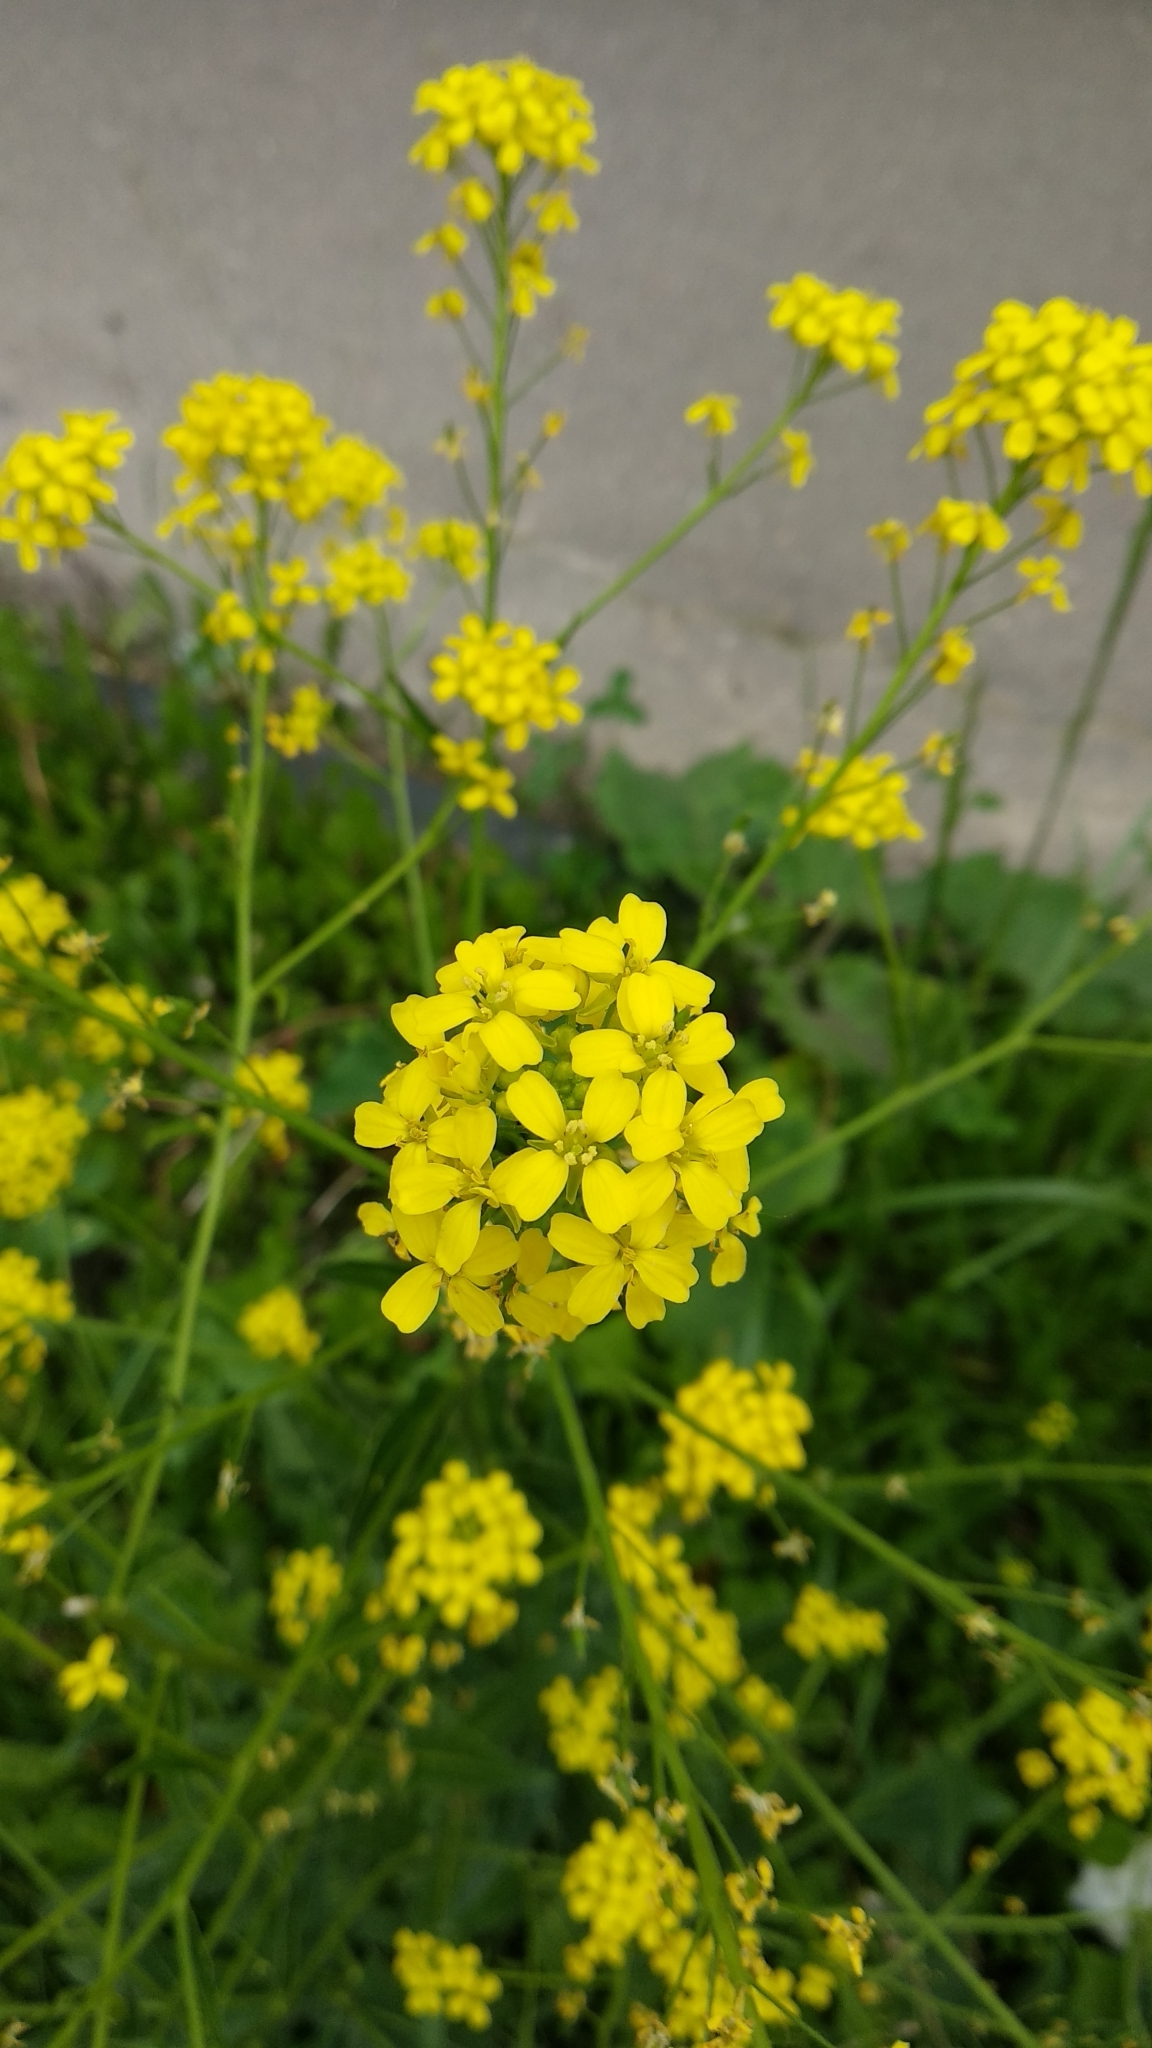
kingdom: Plantae
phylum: Tracheophyta
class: Magnoliopsida
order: Brassicales
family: Brassicaceae
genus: Bunias
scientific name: Bunias orientalis
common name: Warty-cabbage
